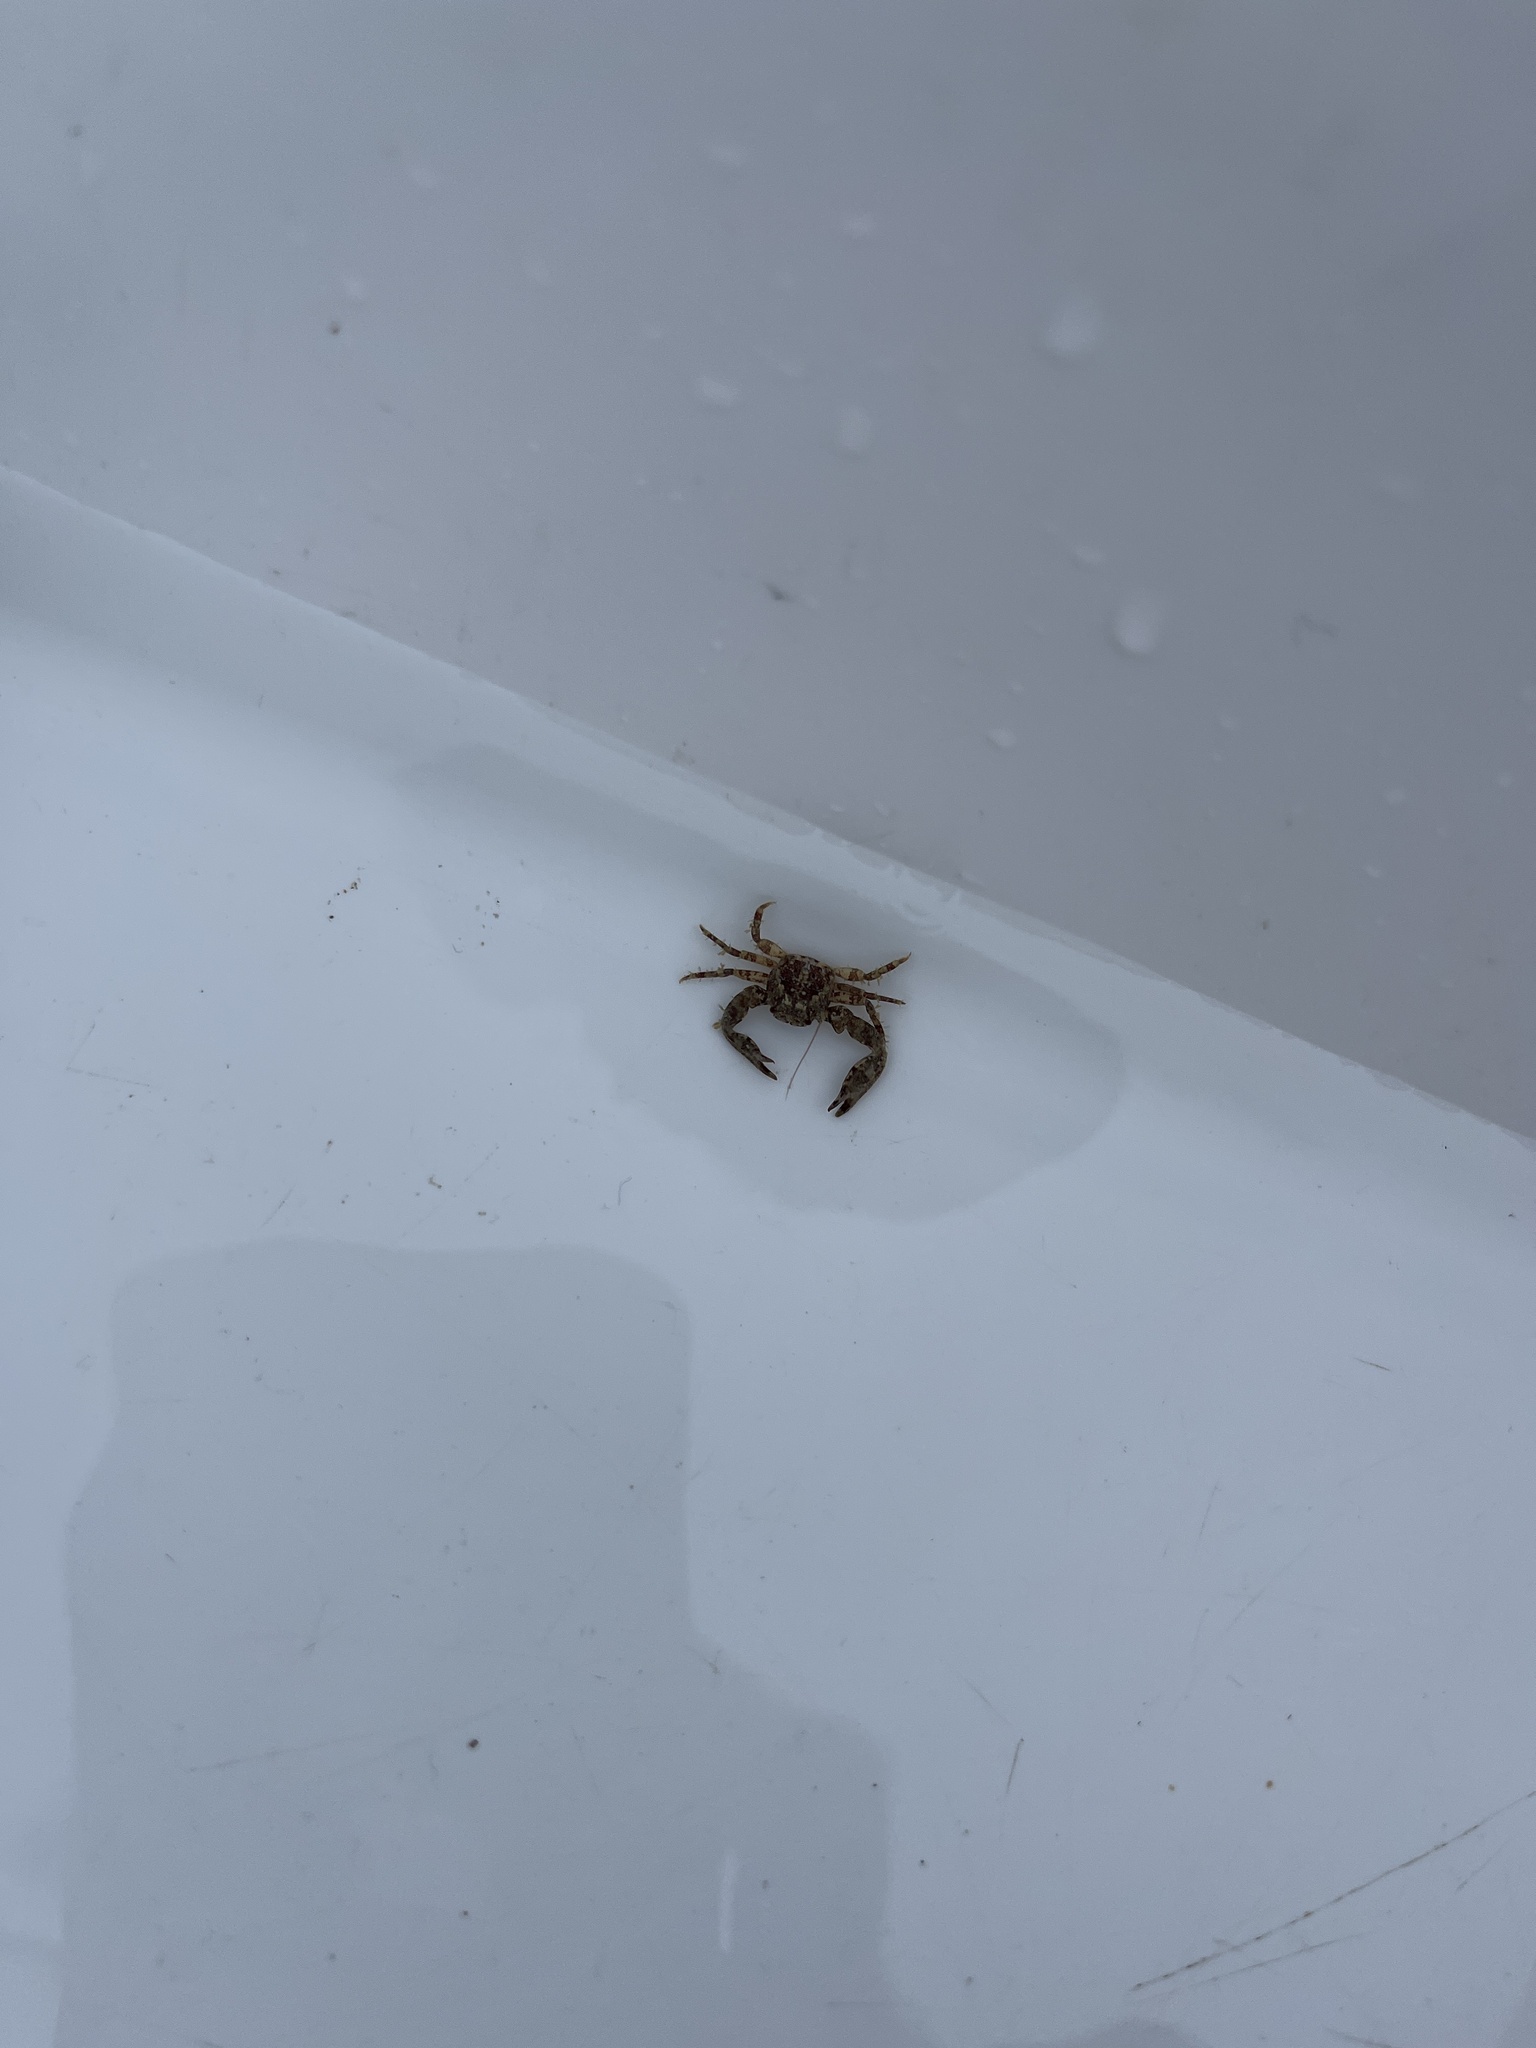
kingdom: Animalia
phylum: Arthropoda
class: Malacostraca
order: Decapoda
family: Porcellanidae
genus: Pisidia
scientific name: Pisidia longicornis
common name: Long clawed porcelain crab
